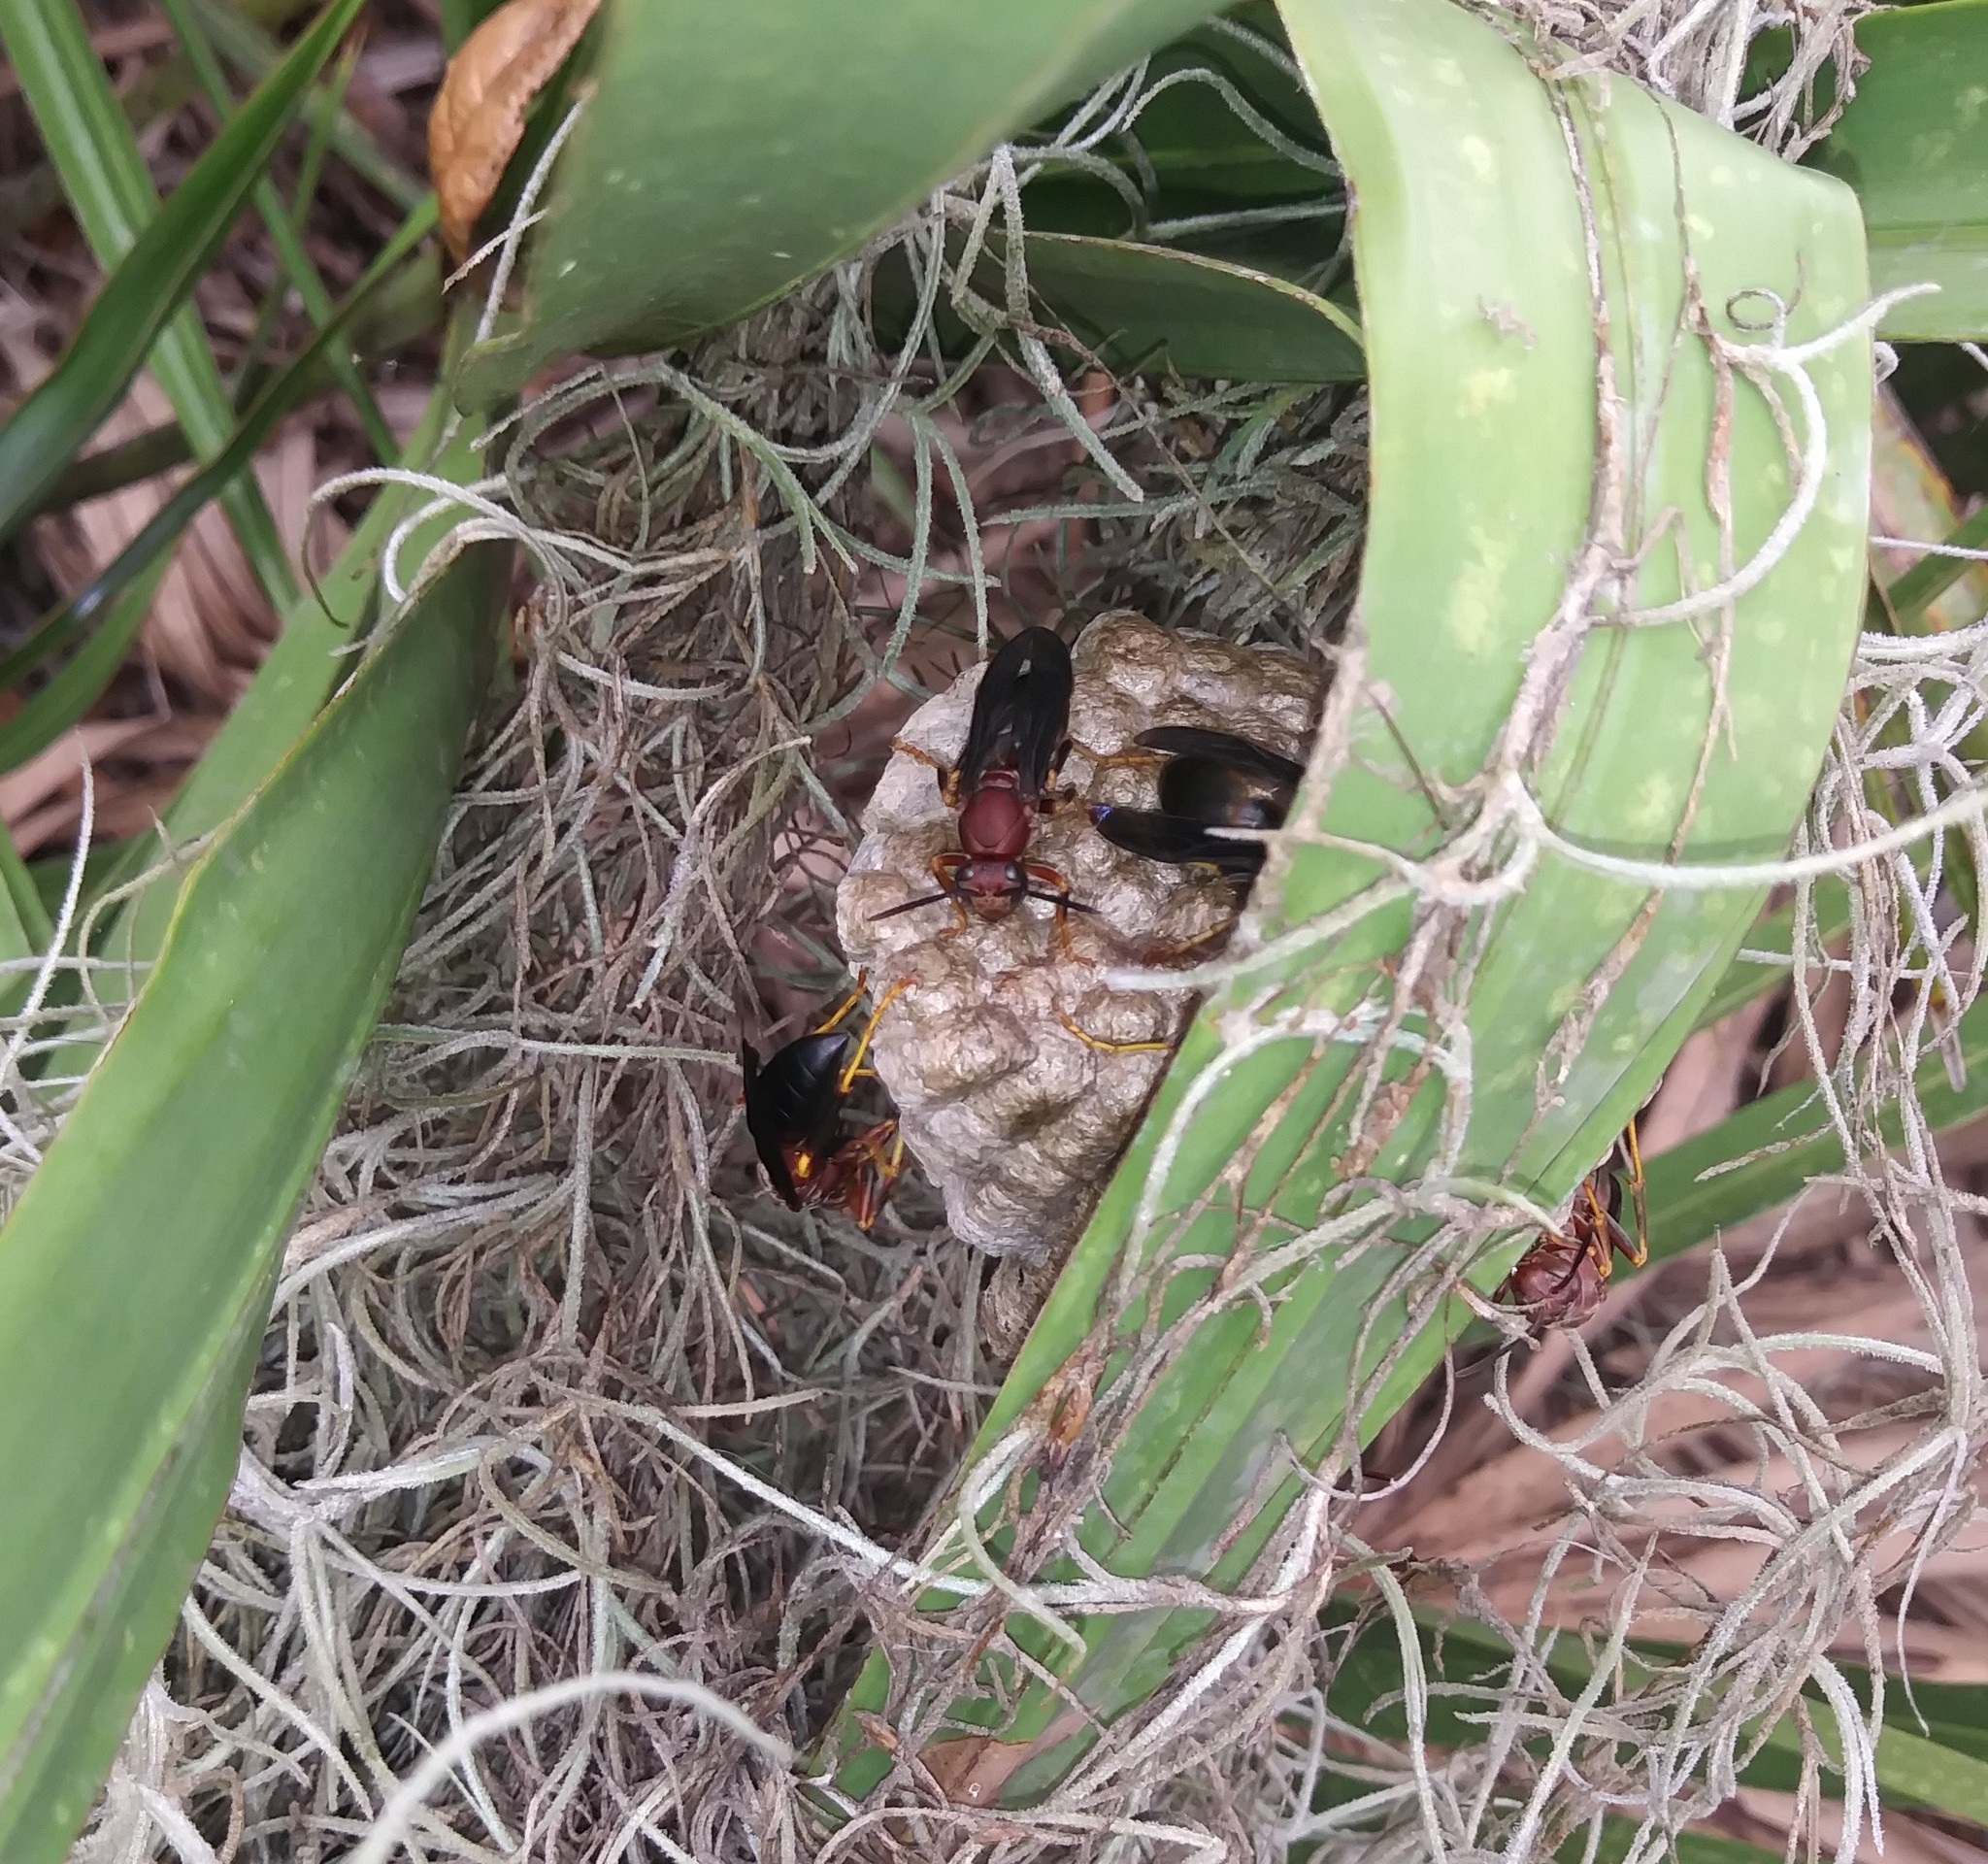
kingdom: Animalia
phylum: Arthropoda
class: Insecta
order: Hymenoptera
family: Eumenidae
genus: Polistes
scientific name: Polistes metricus
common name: Metric paper wasp
